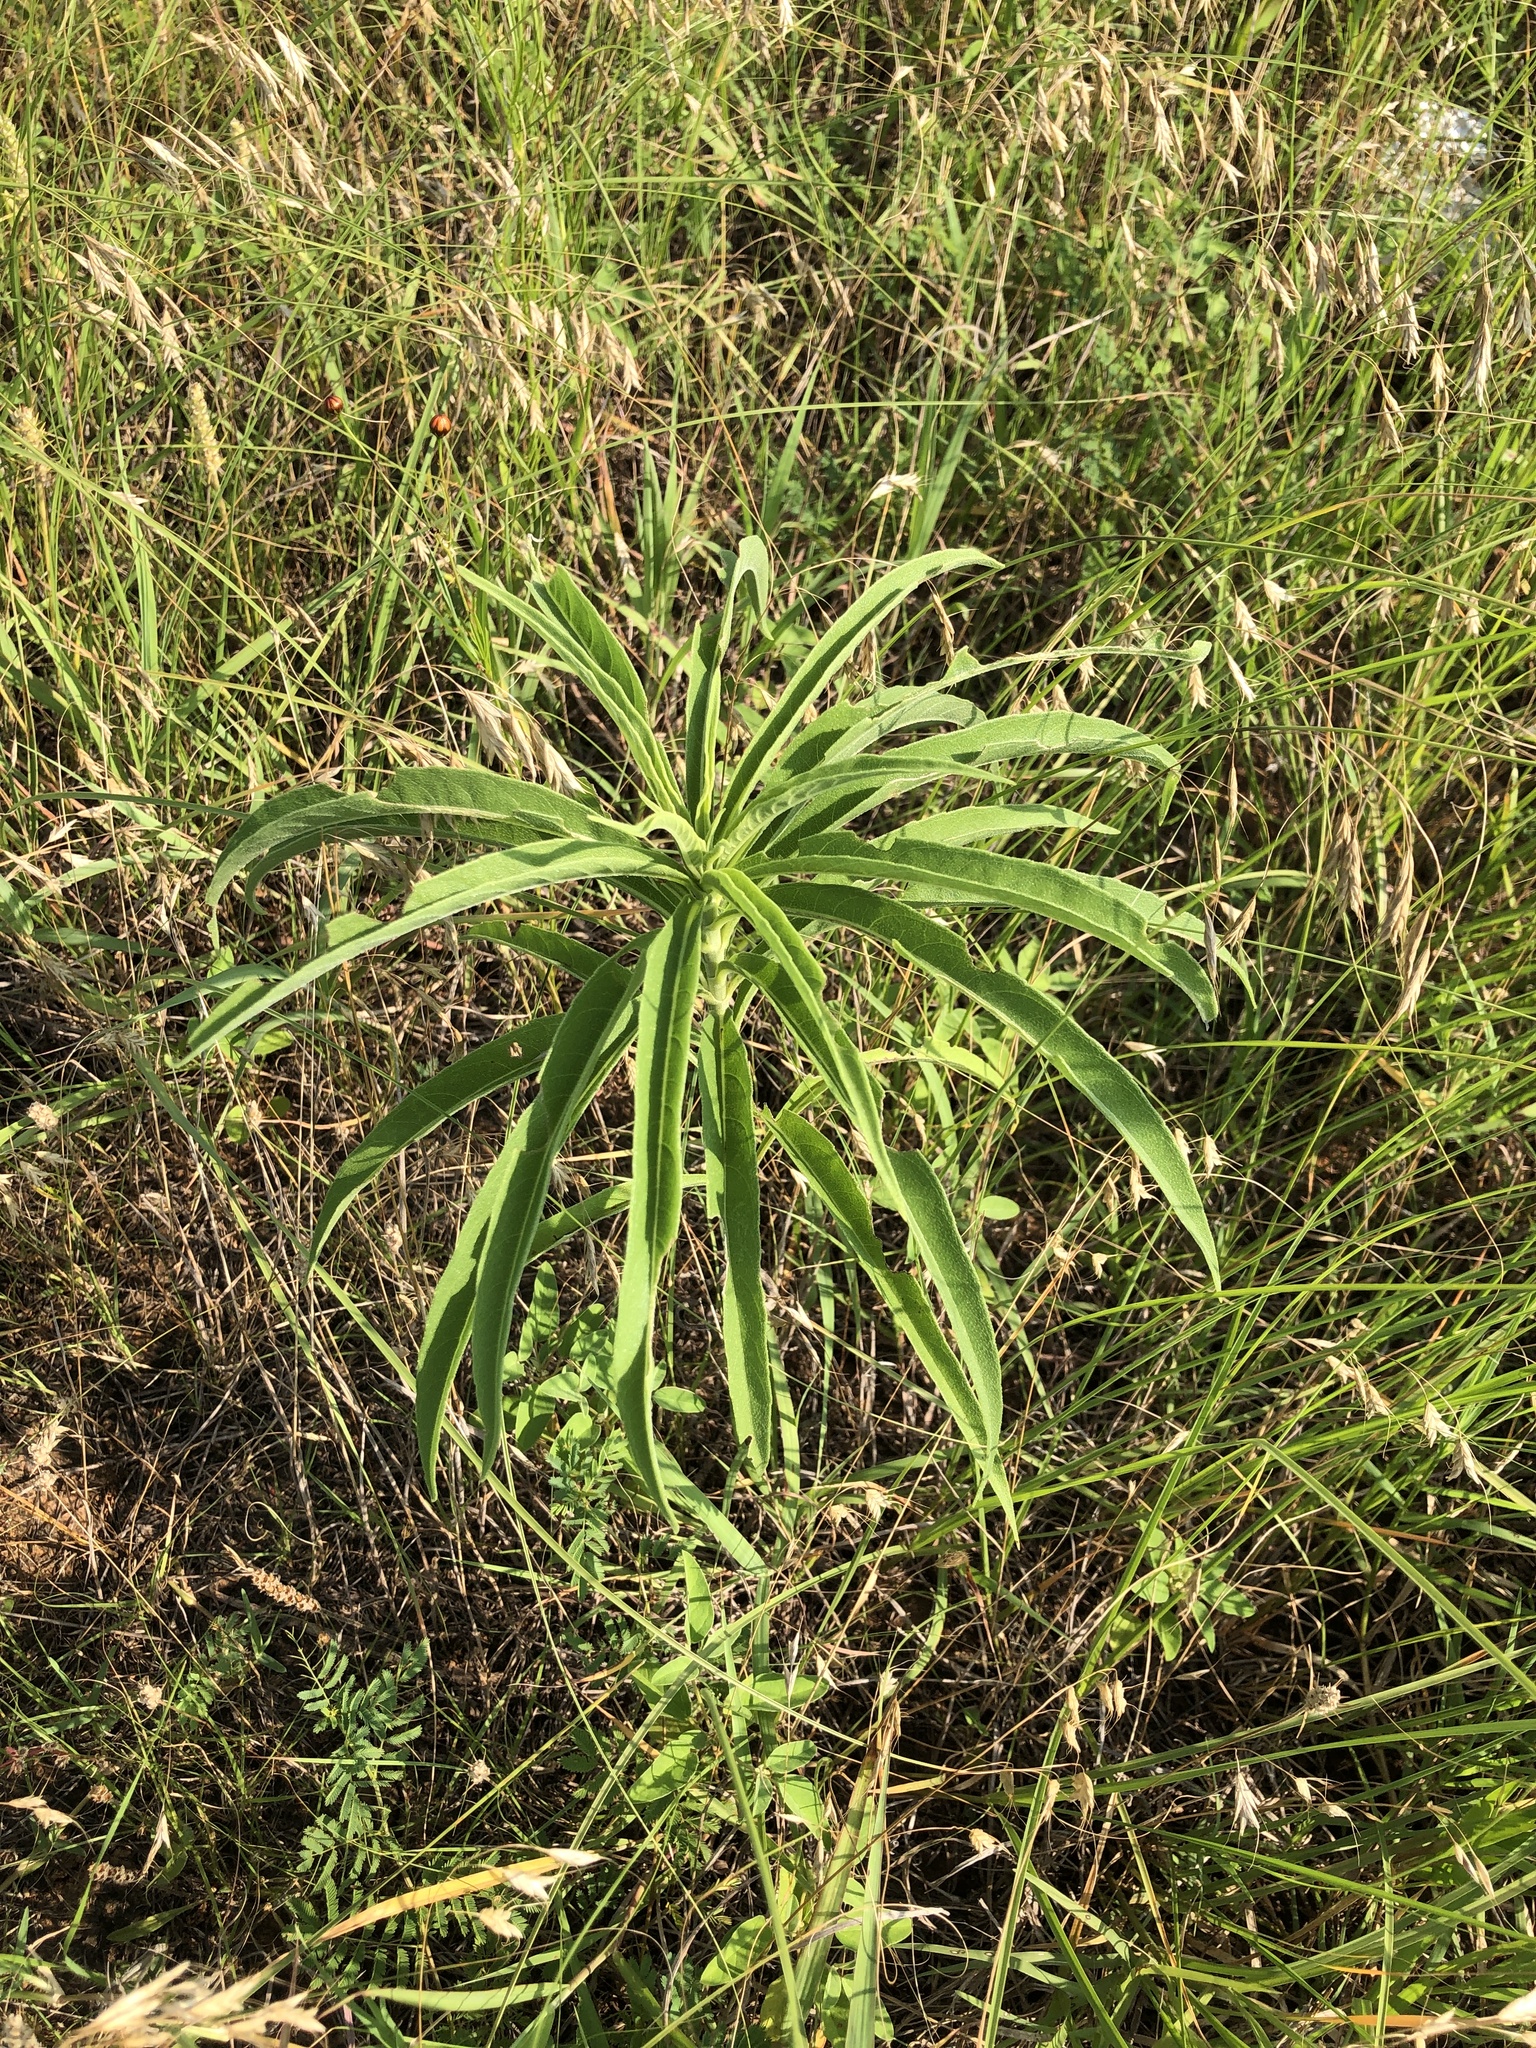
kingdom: Plantae
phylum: Tracheophyta
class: Magnoliopsida
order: Asterales
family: Asteraceae
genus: Helianthus
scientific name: Helianthus maximiliani
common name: Maximilian's sunflower
